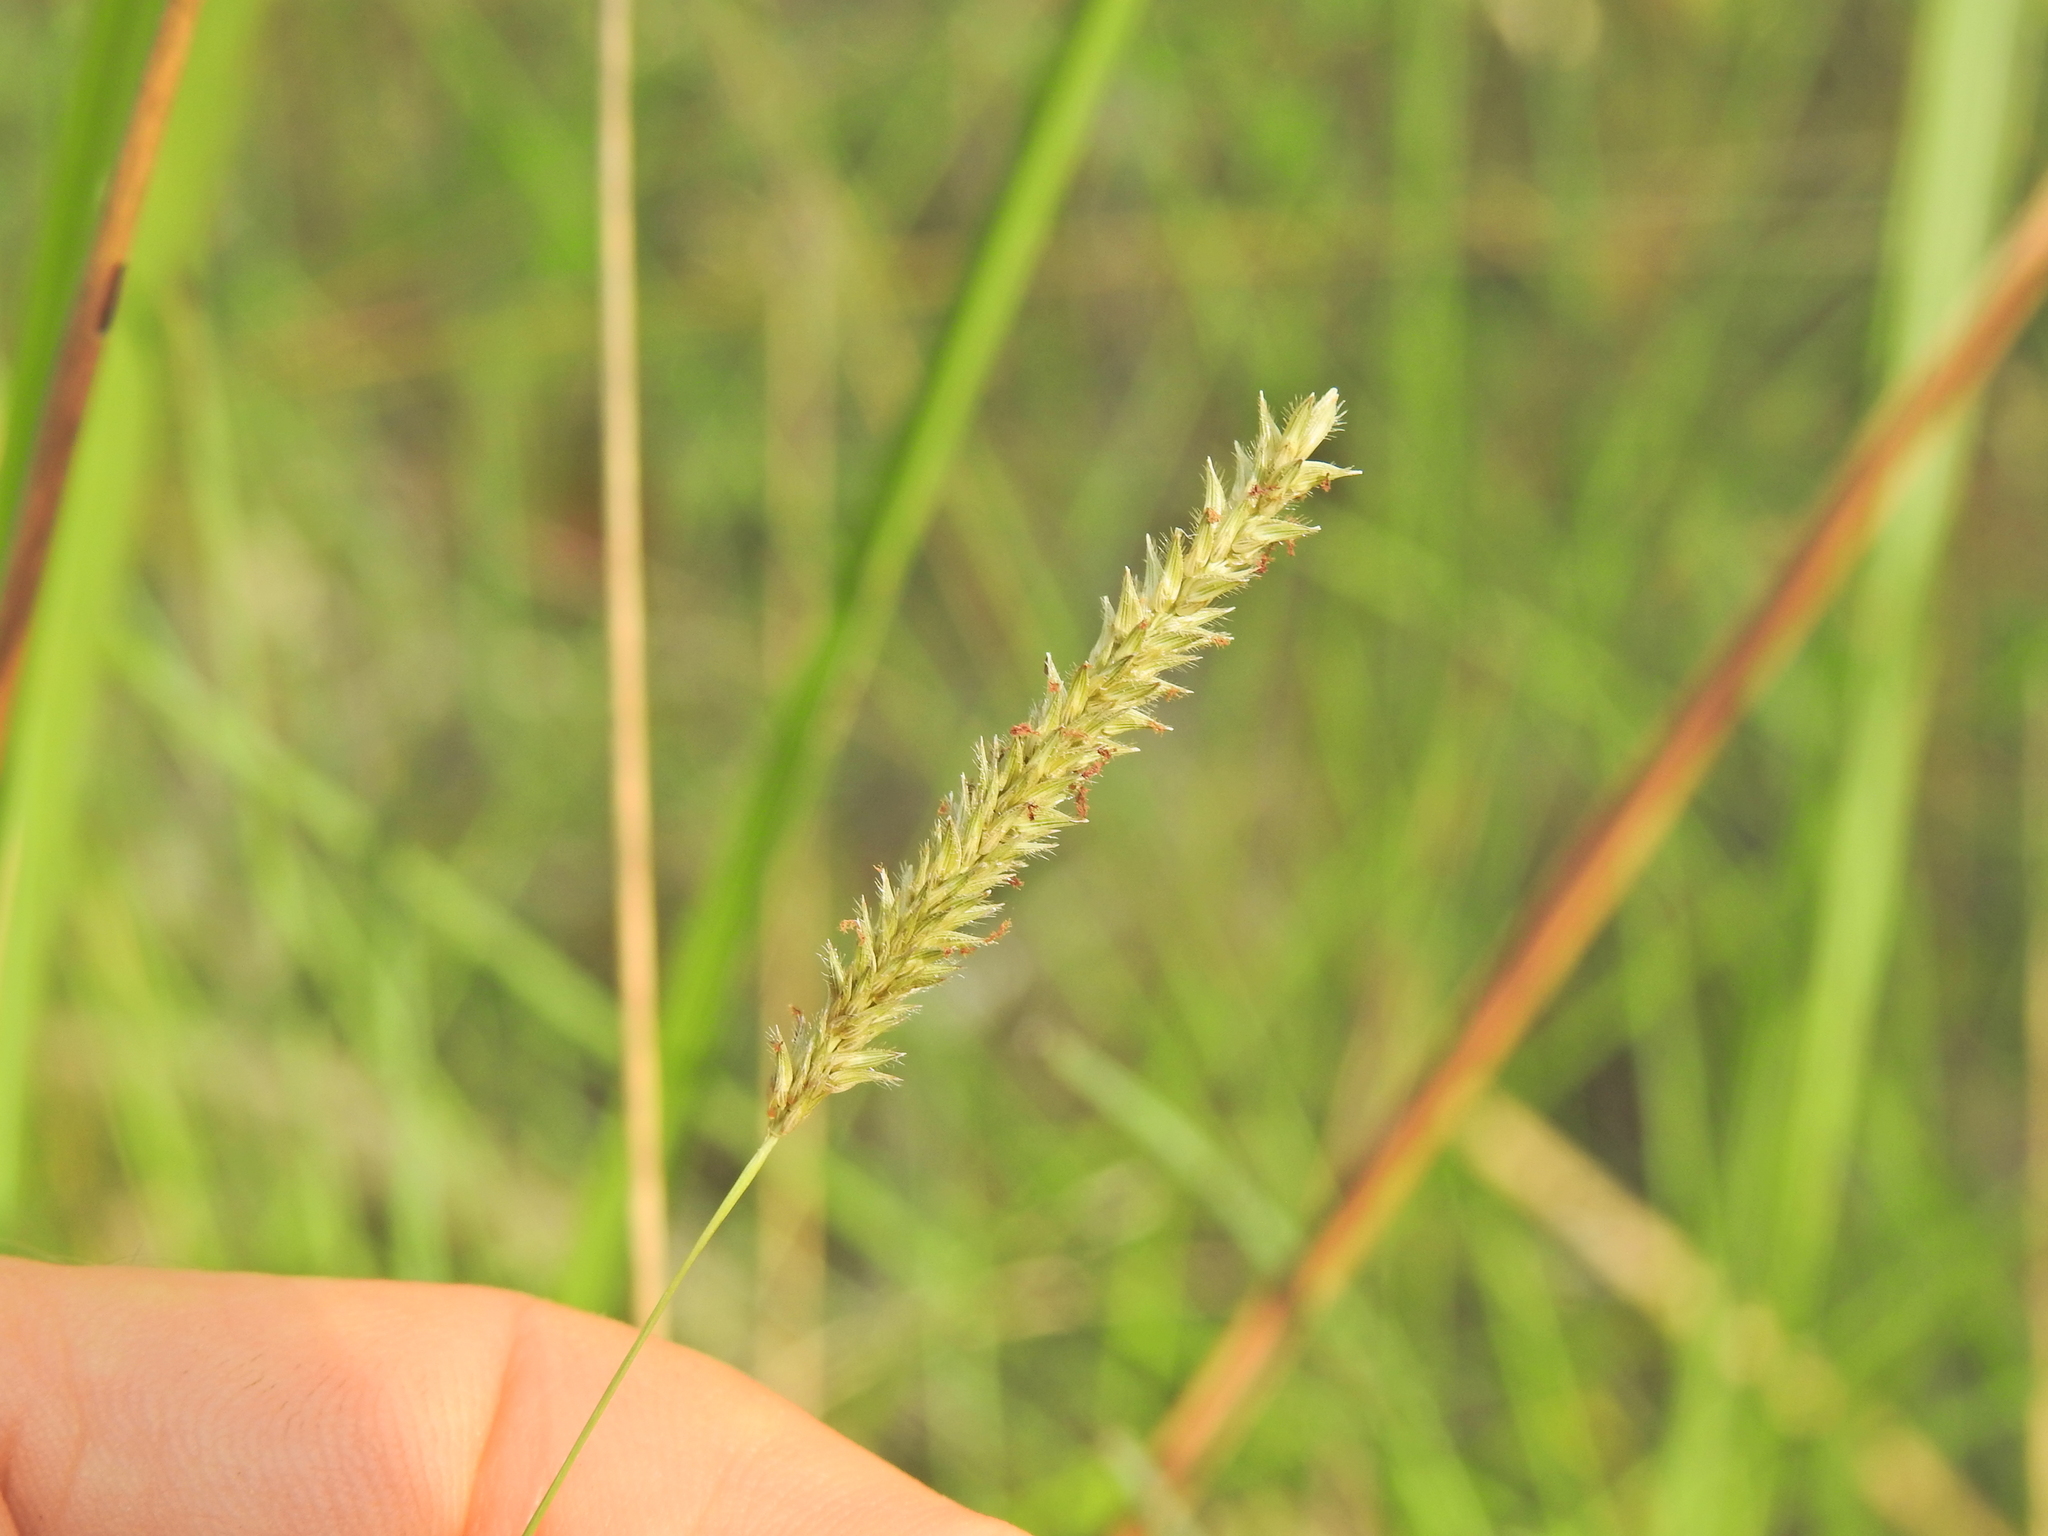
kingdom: Plantae
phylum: Tracheophyta
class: Liliopsida
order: Poales
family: Poaceae
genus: Sacciolepis
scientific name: Sacciolepis indica
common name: Glenwoodgrass
